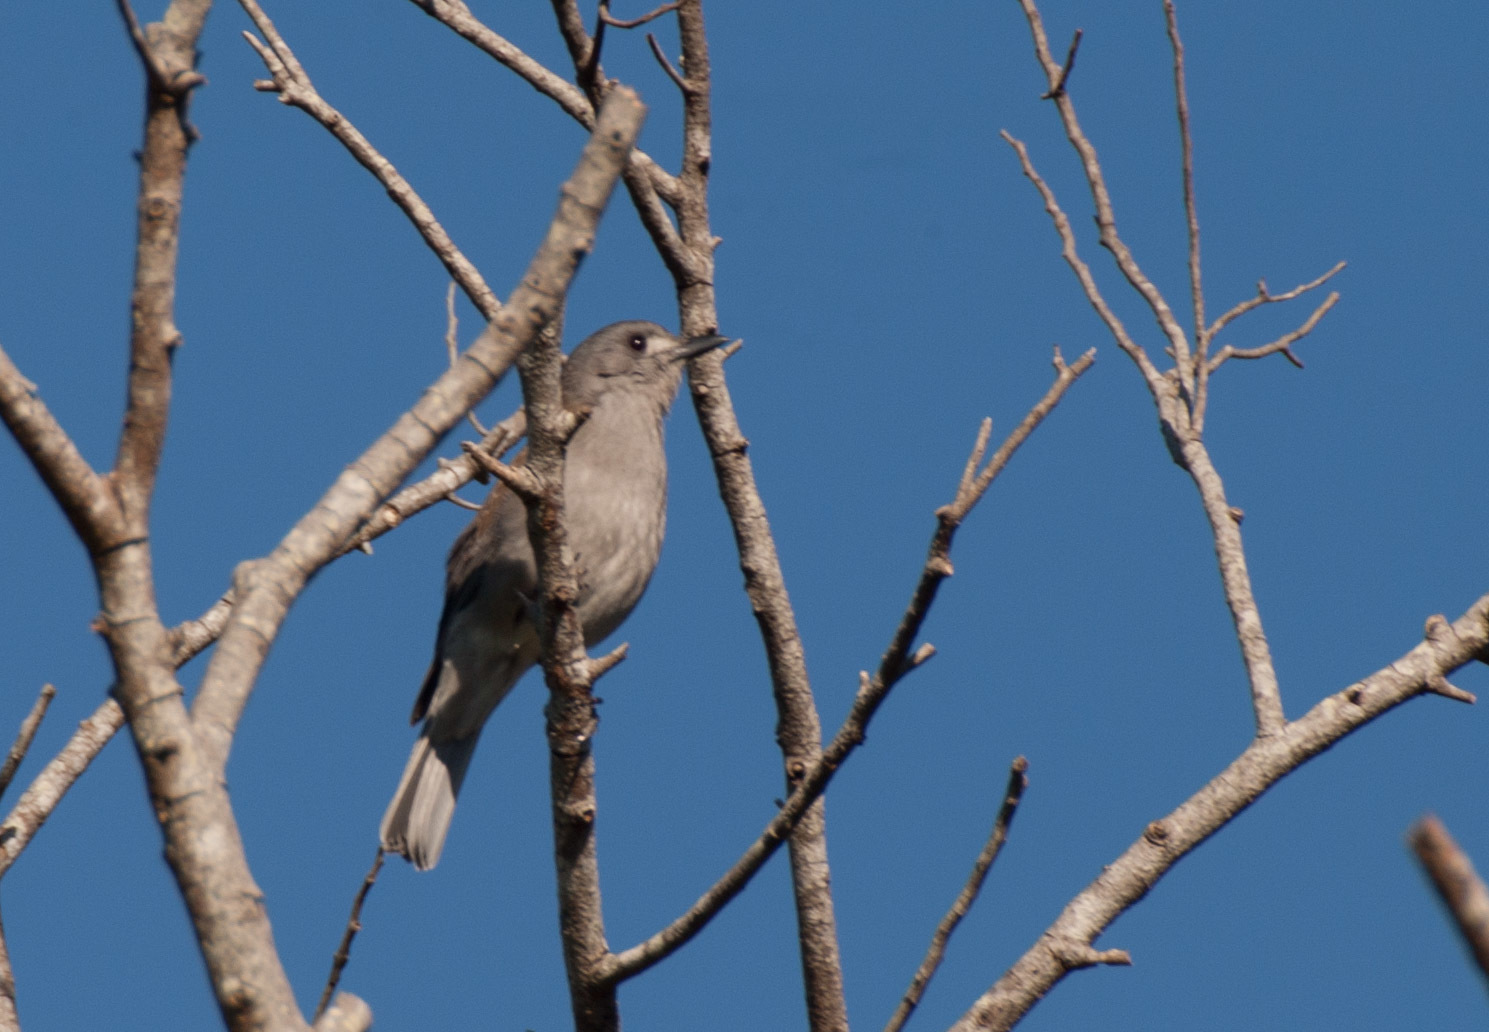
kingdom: Animalia
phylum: Chordata
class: Aves
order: Passeriformes
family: Pachycephalidae
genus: Colluricincla
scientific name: Colluricincla harmonica
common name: Grey shrikethrush
